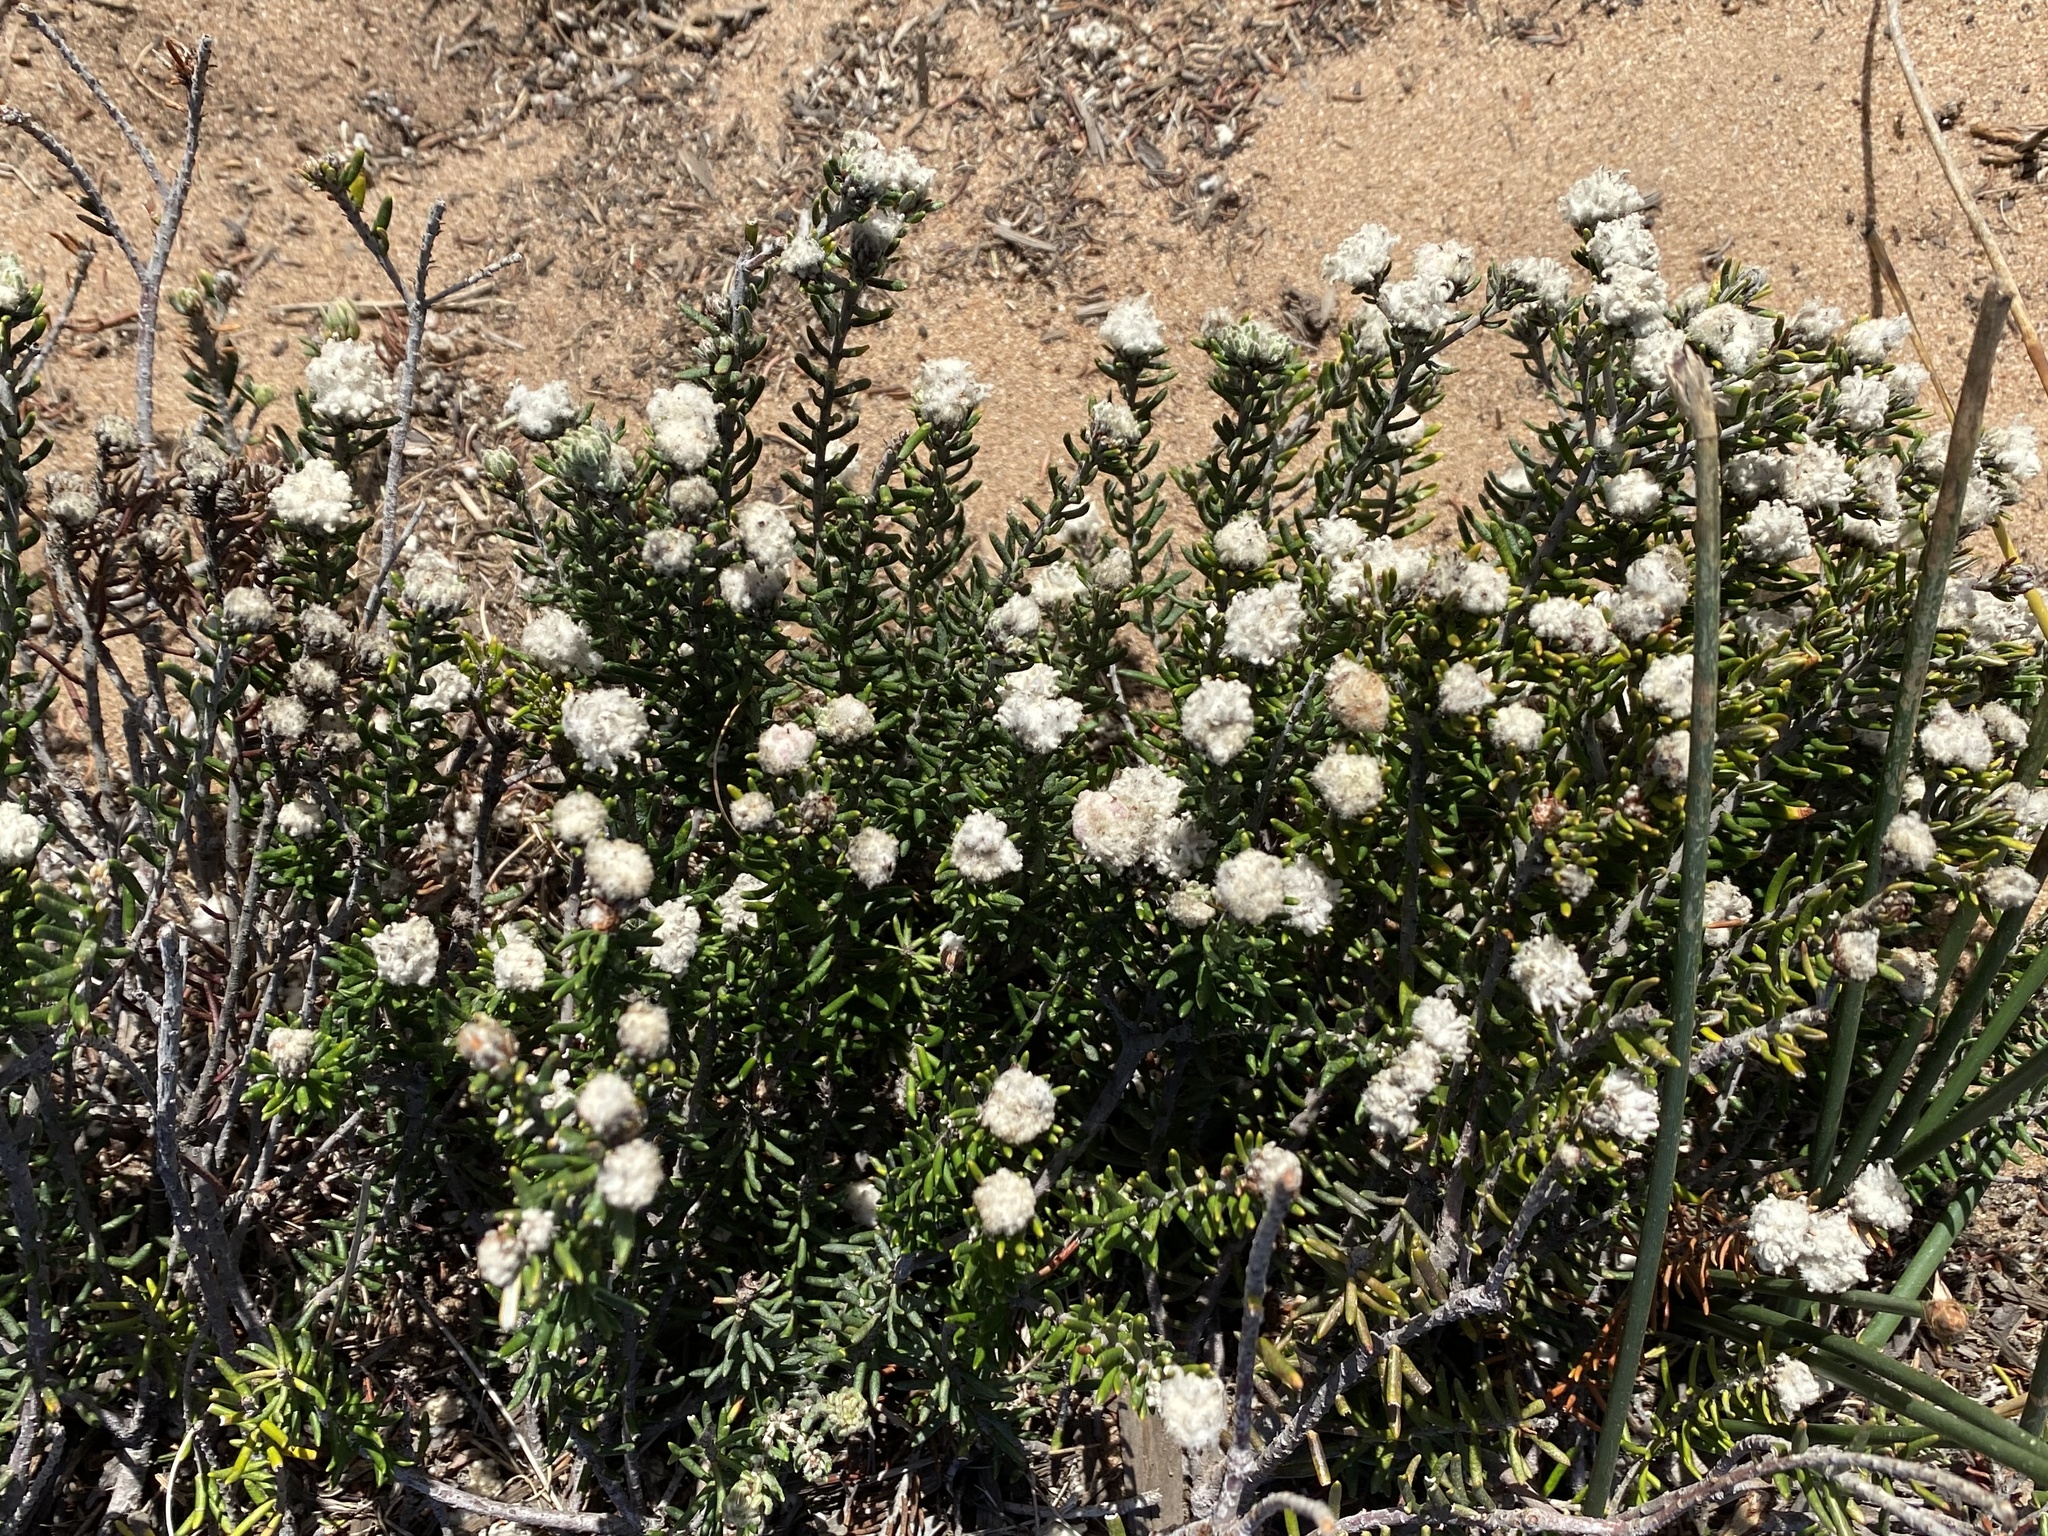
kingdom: Plantae
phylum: Tracheophyta
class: Magnoliopsida
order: Rosales
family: Rhamnaceae
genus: Trichocephalus
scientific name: Trichocephalus stipularis
